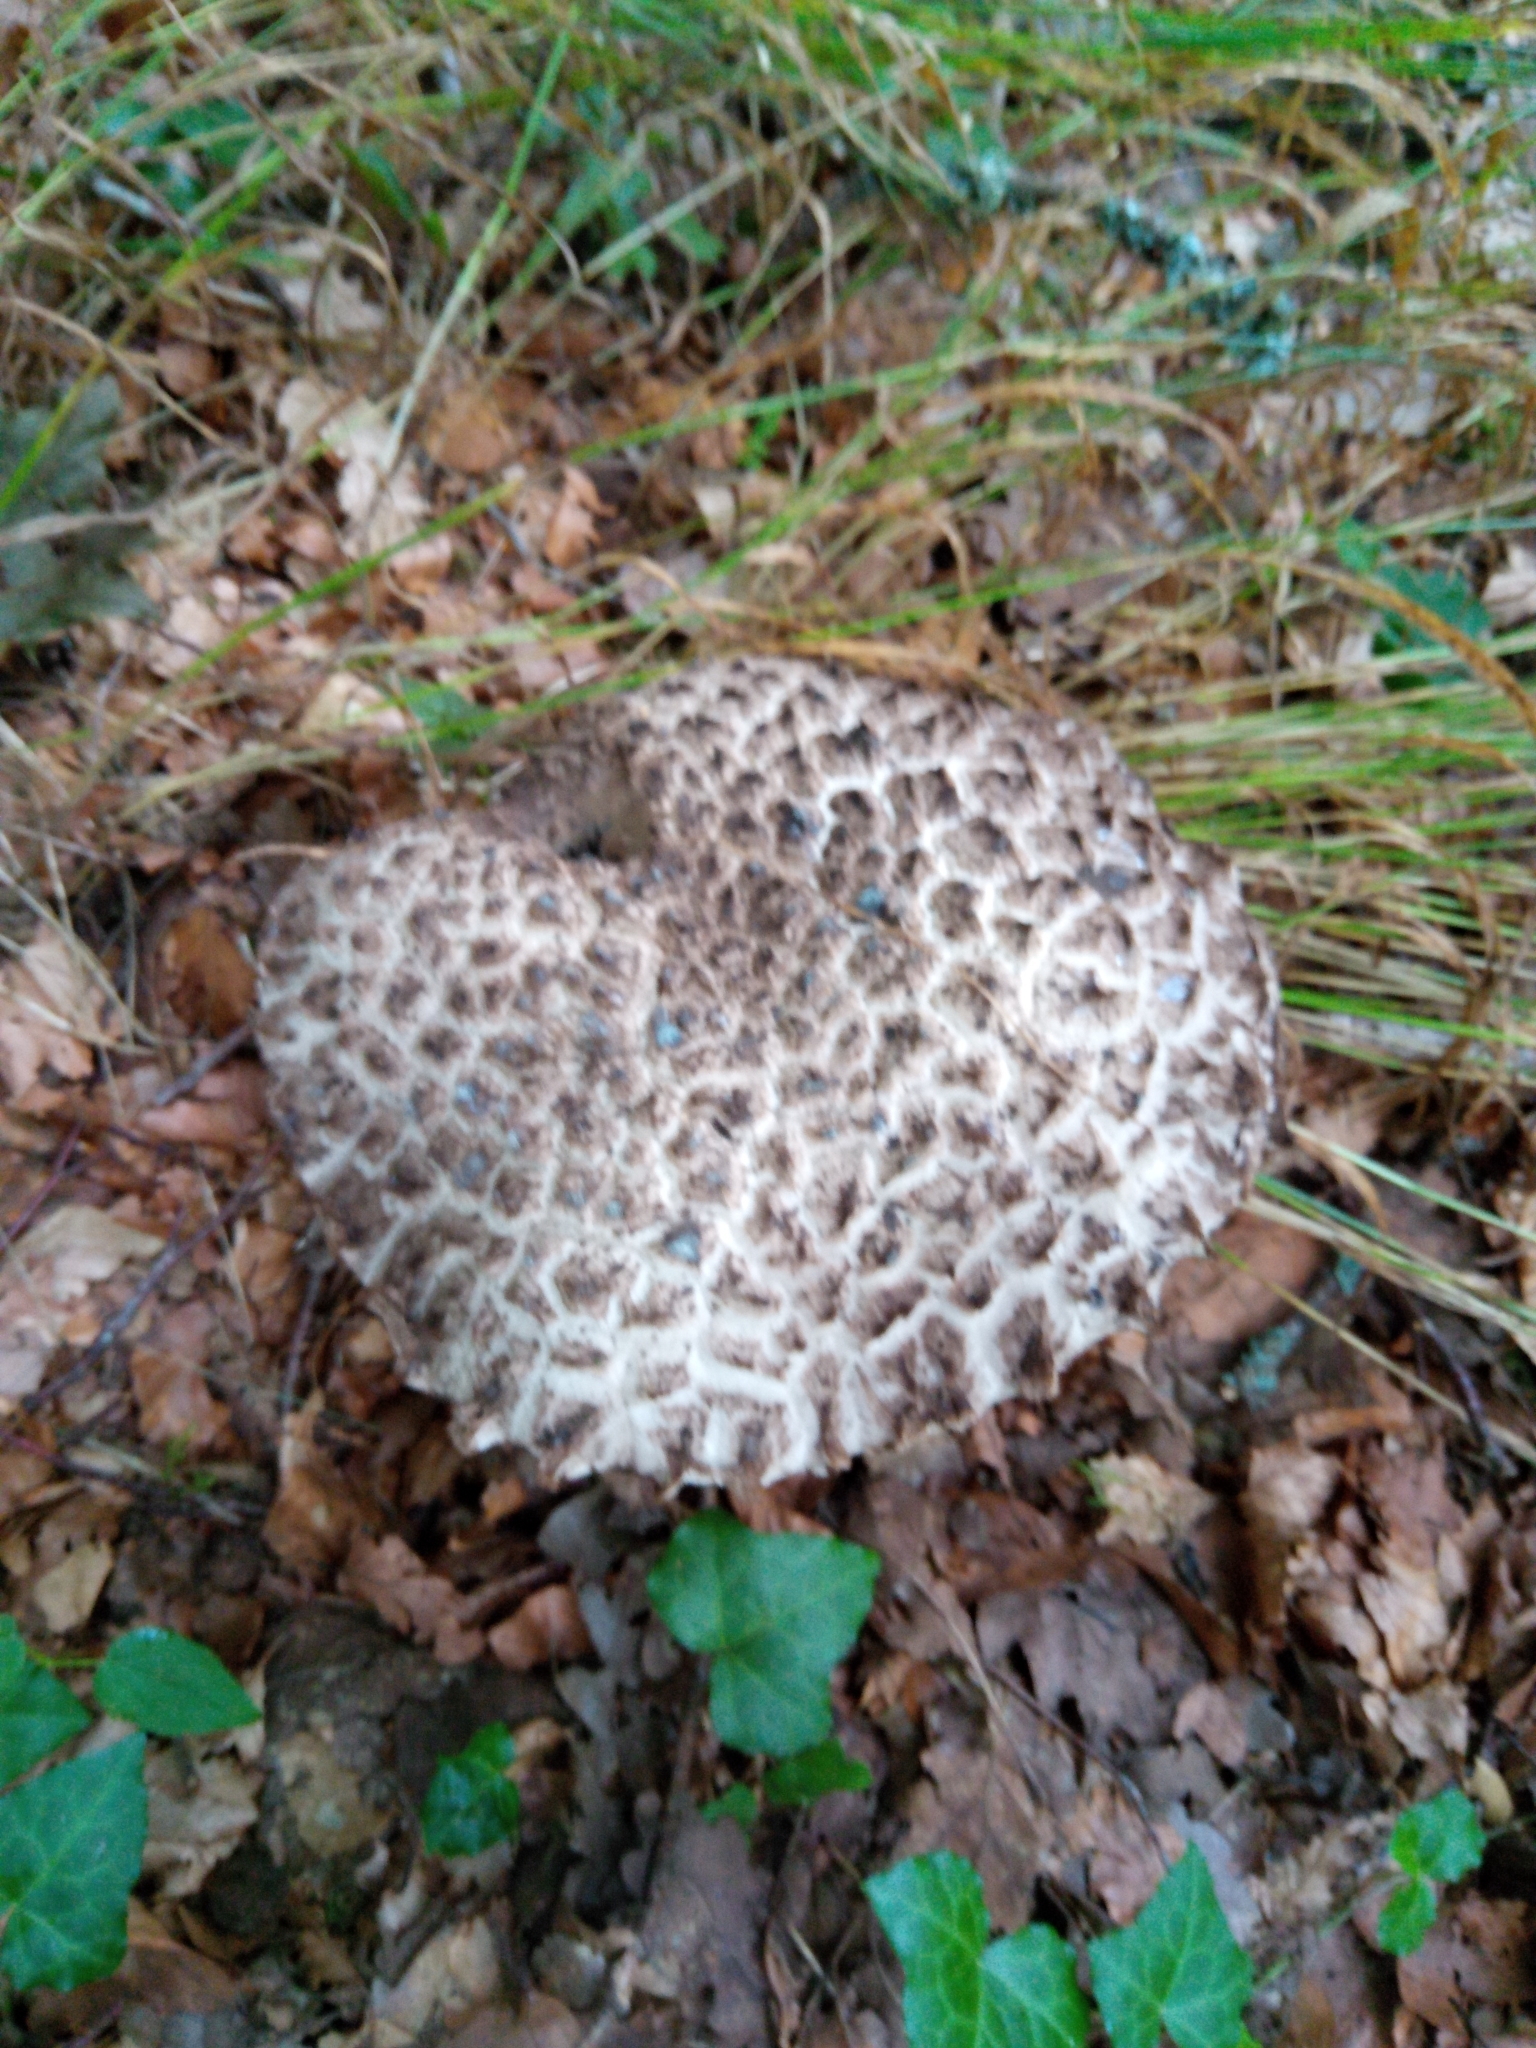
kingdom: Fungi
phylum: Basidiomycota
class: Agaricomycetes
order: Boletales
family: Boletaceae
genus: Strobilomyces
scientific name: Strobilomyces strobilaceus
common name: Old man of the woods
